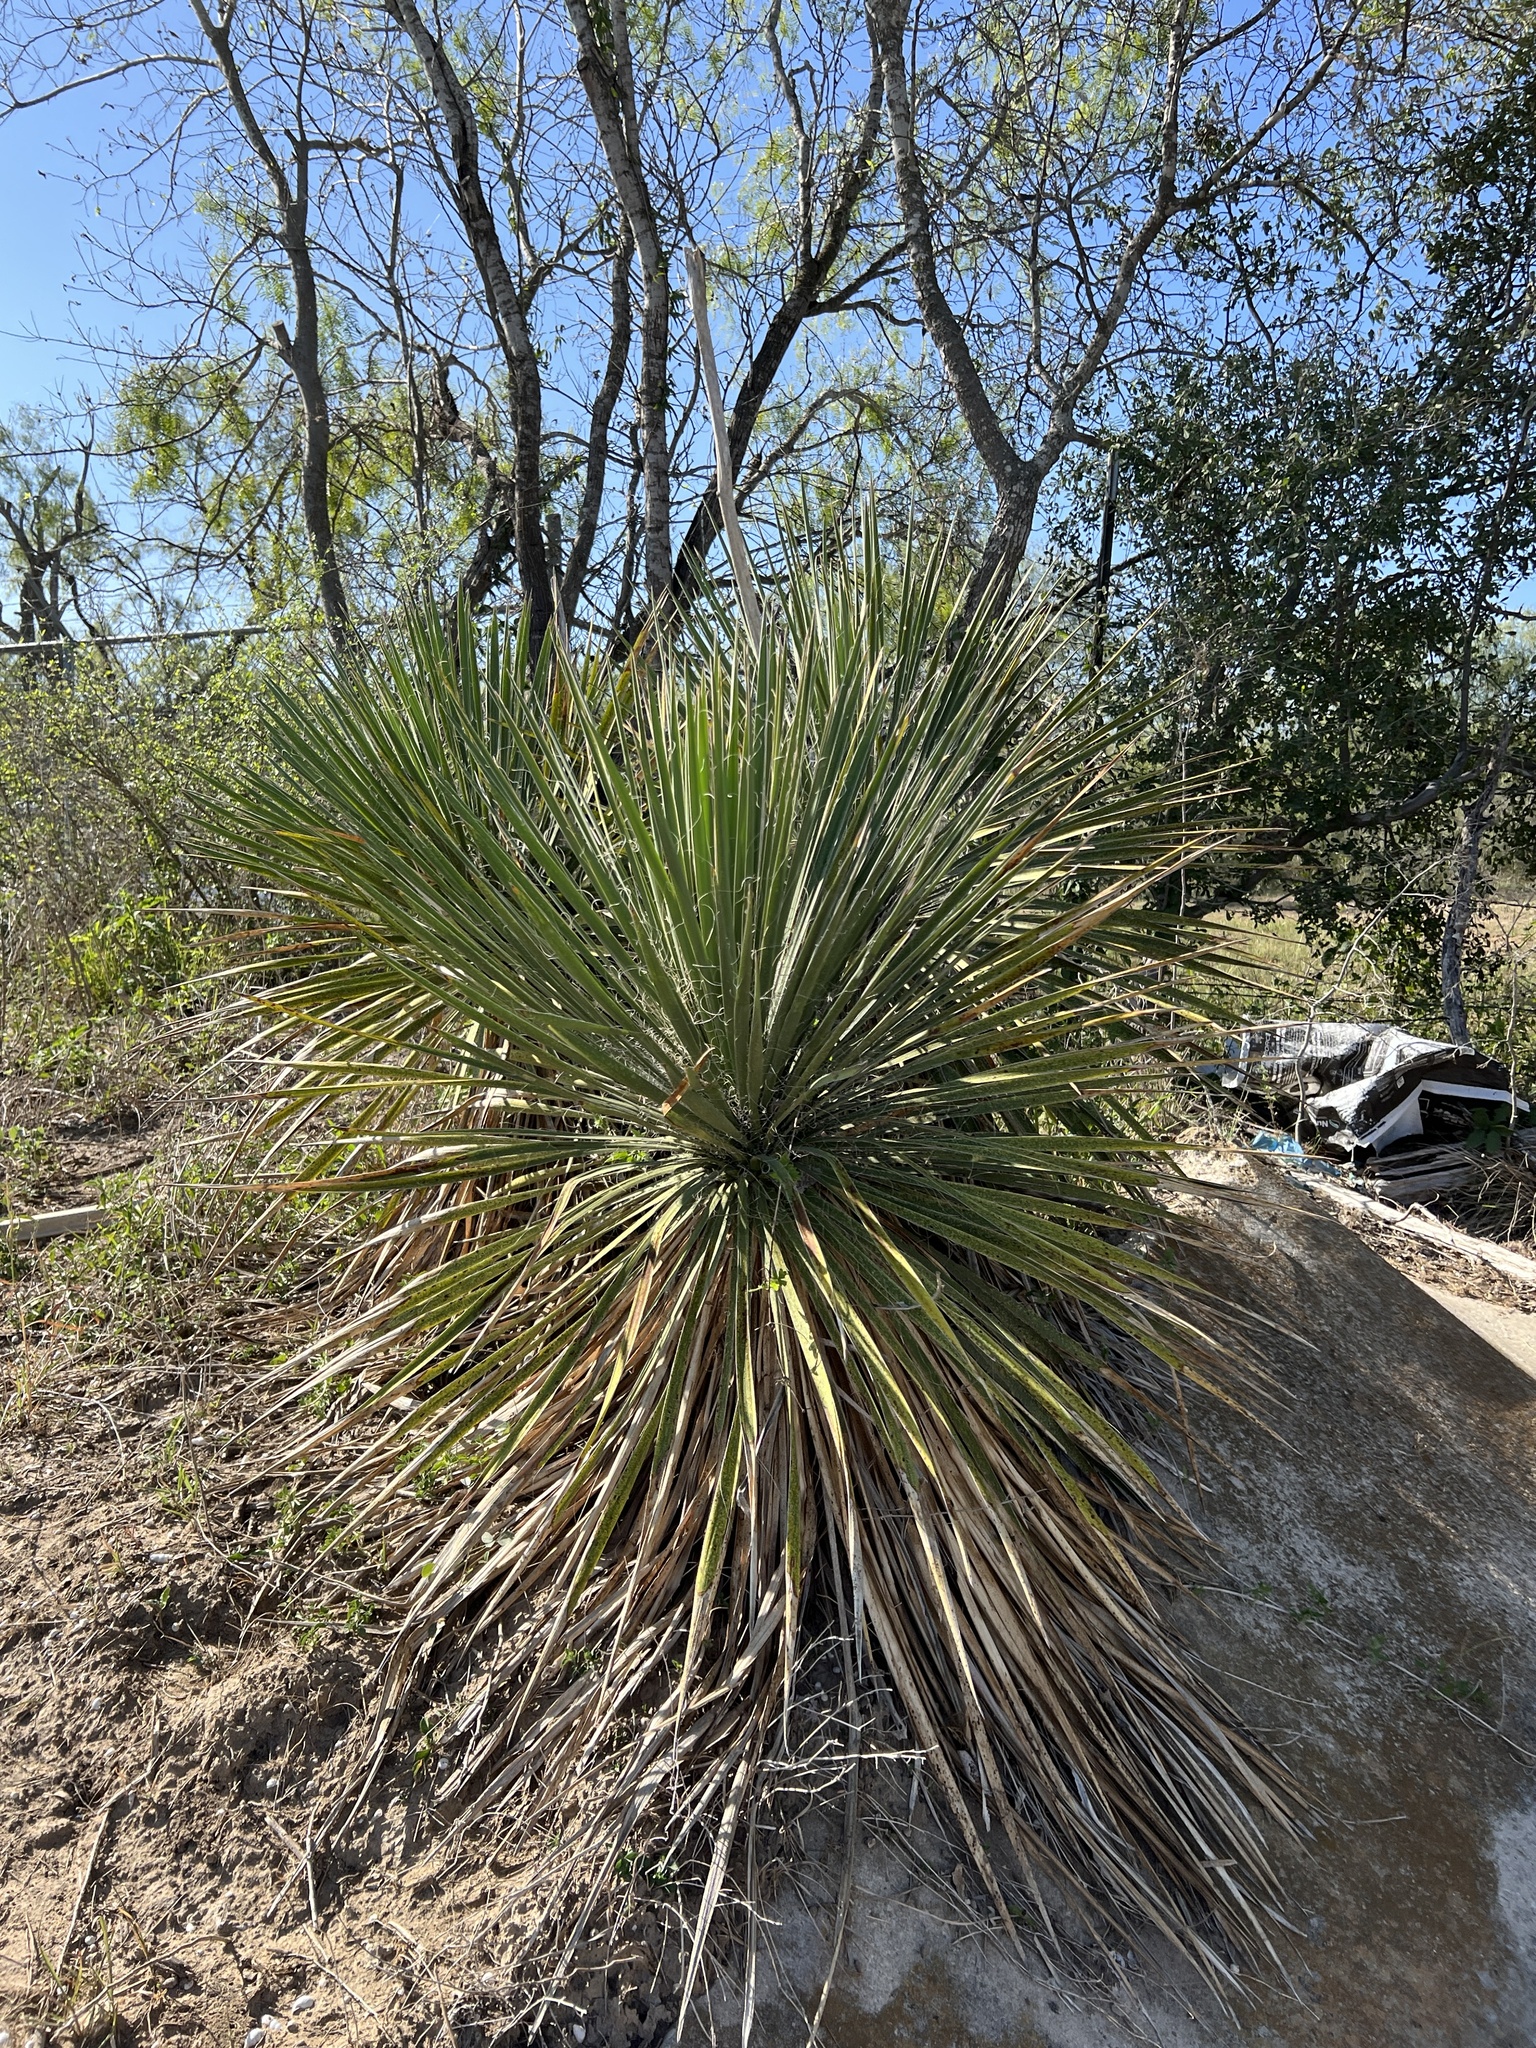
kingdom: Plantae
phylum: Tracheophyta
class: Liliopsida
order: Asparagales
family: Asparagaceae
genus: Yucca
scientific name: Yucca constricta
